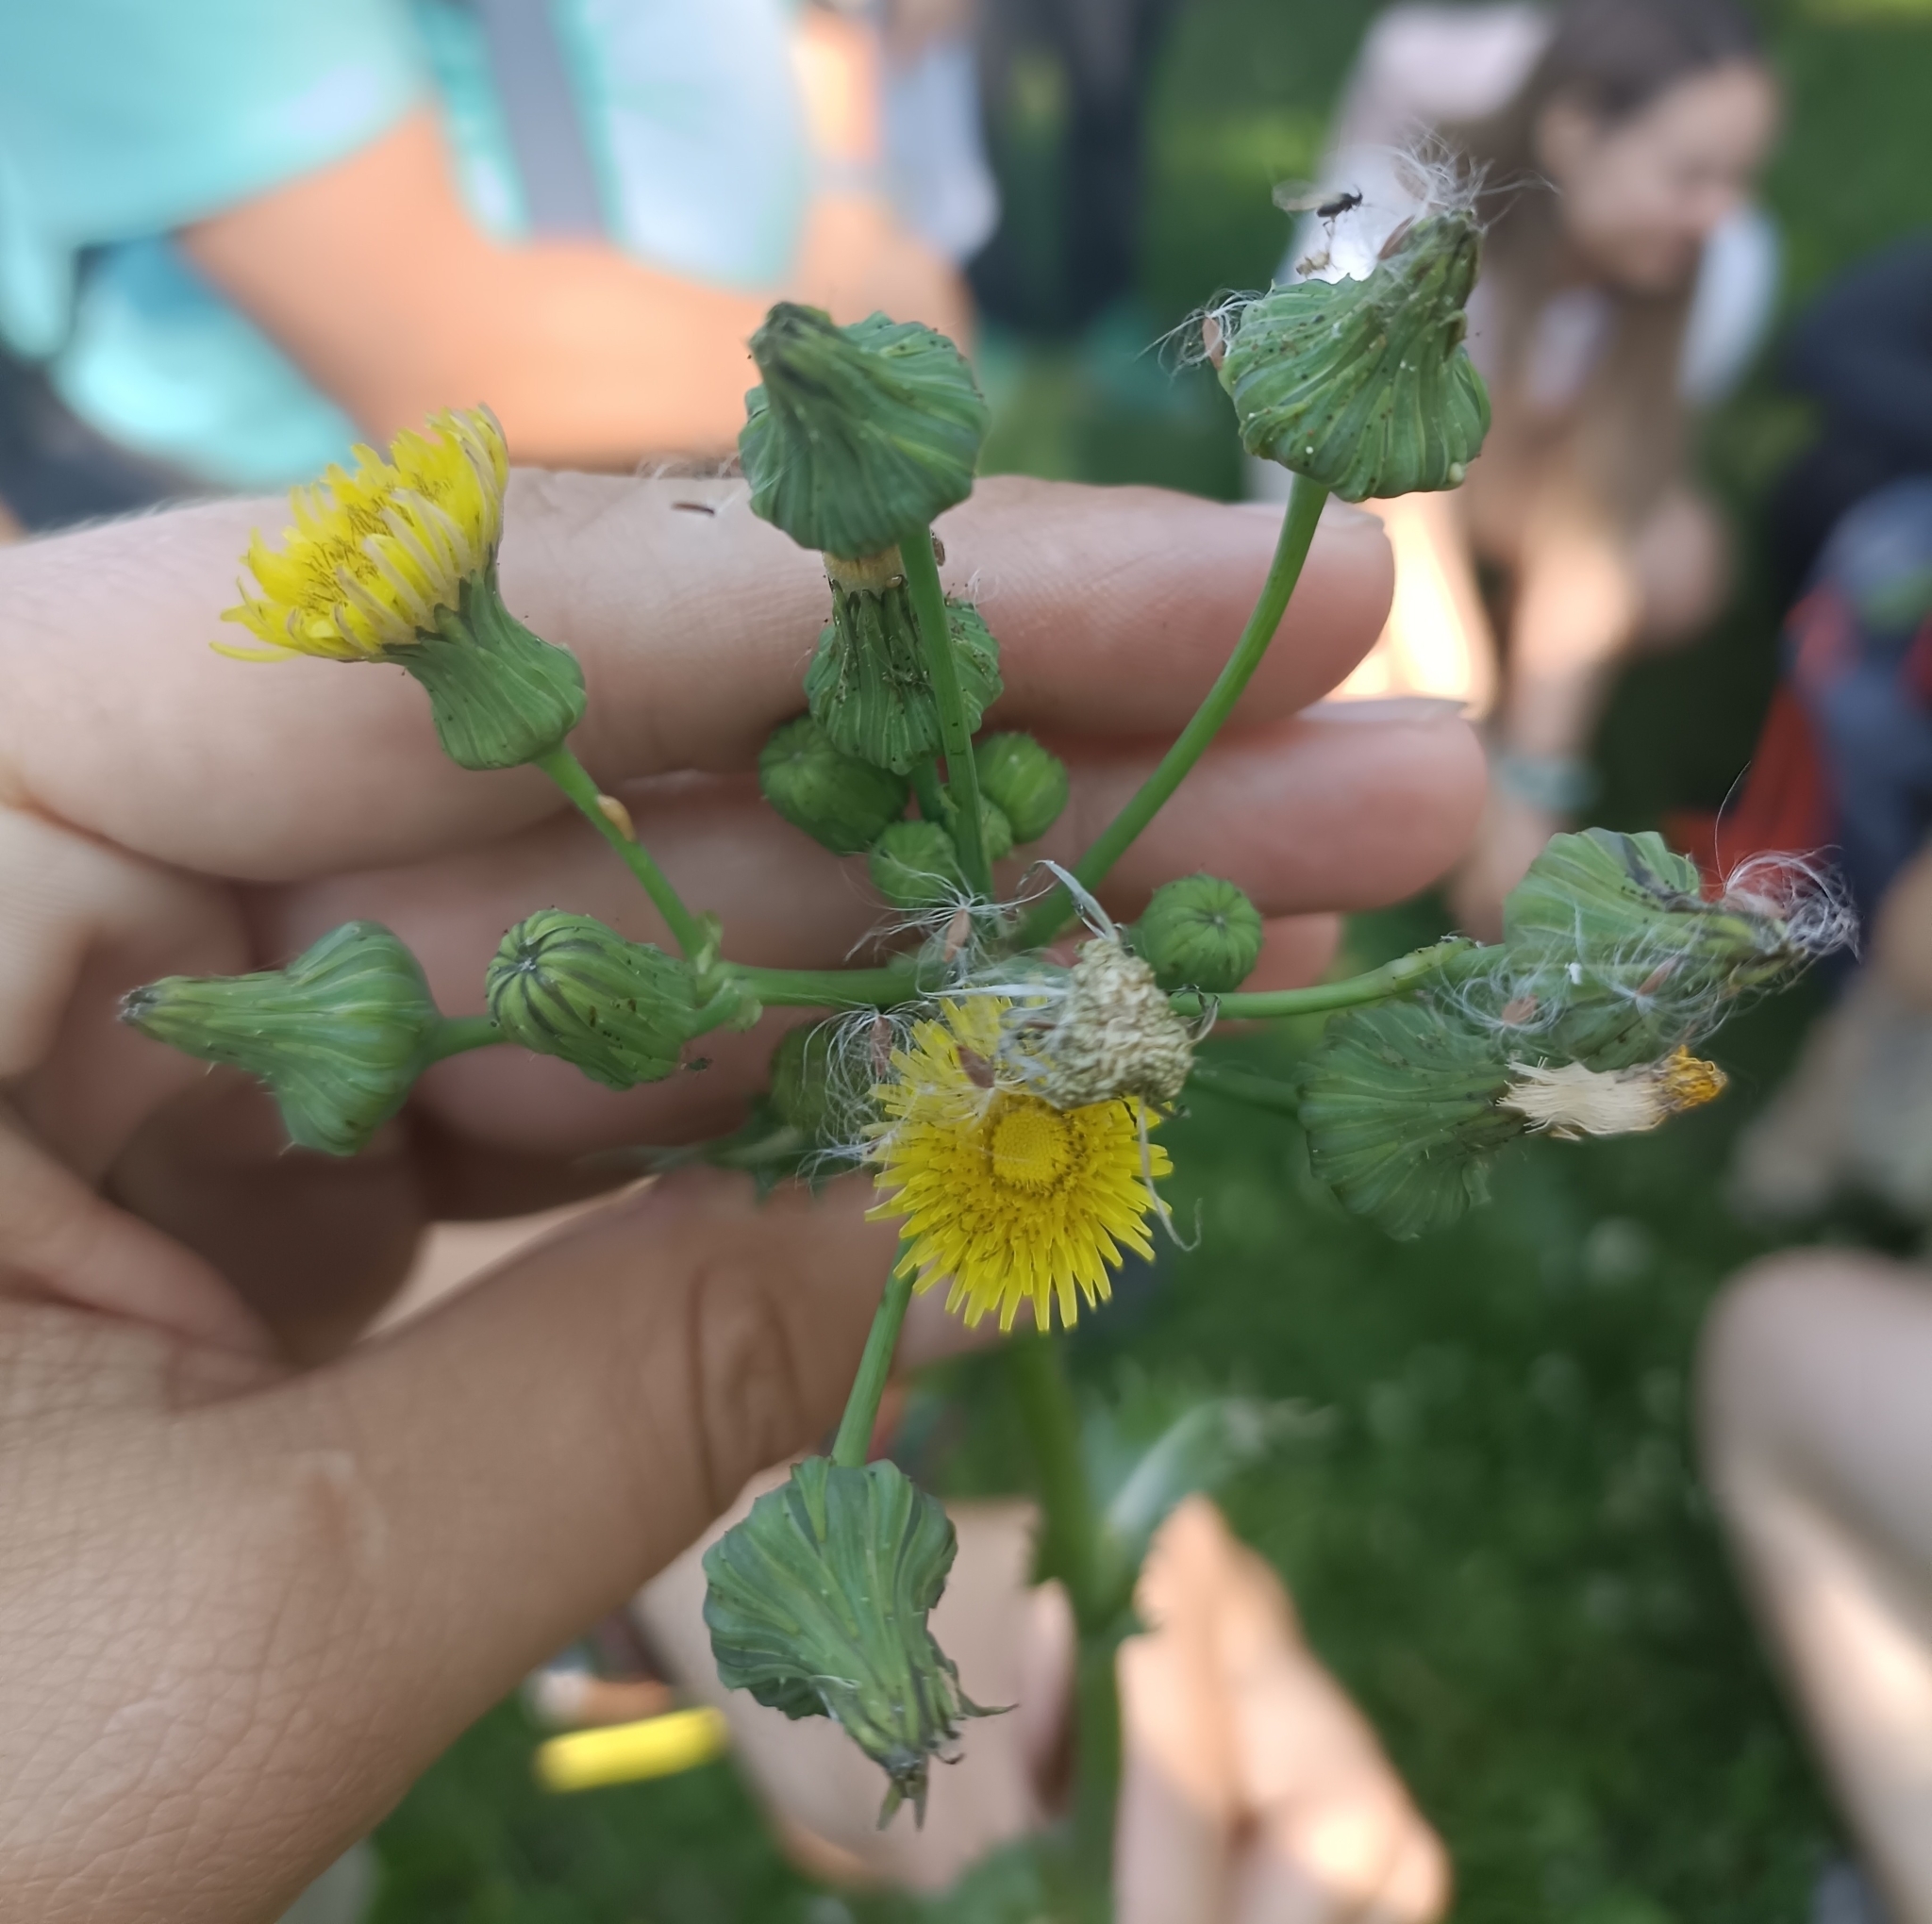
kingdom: Plantae
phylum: Tracheophyta
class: Magnoliopsida
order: Asterales
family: Asteraceae
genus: Sonchus
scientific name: Sonchus asper
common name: Prickly sow-thistle
